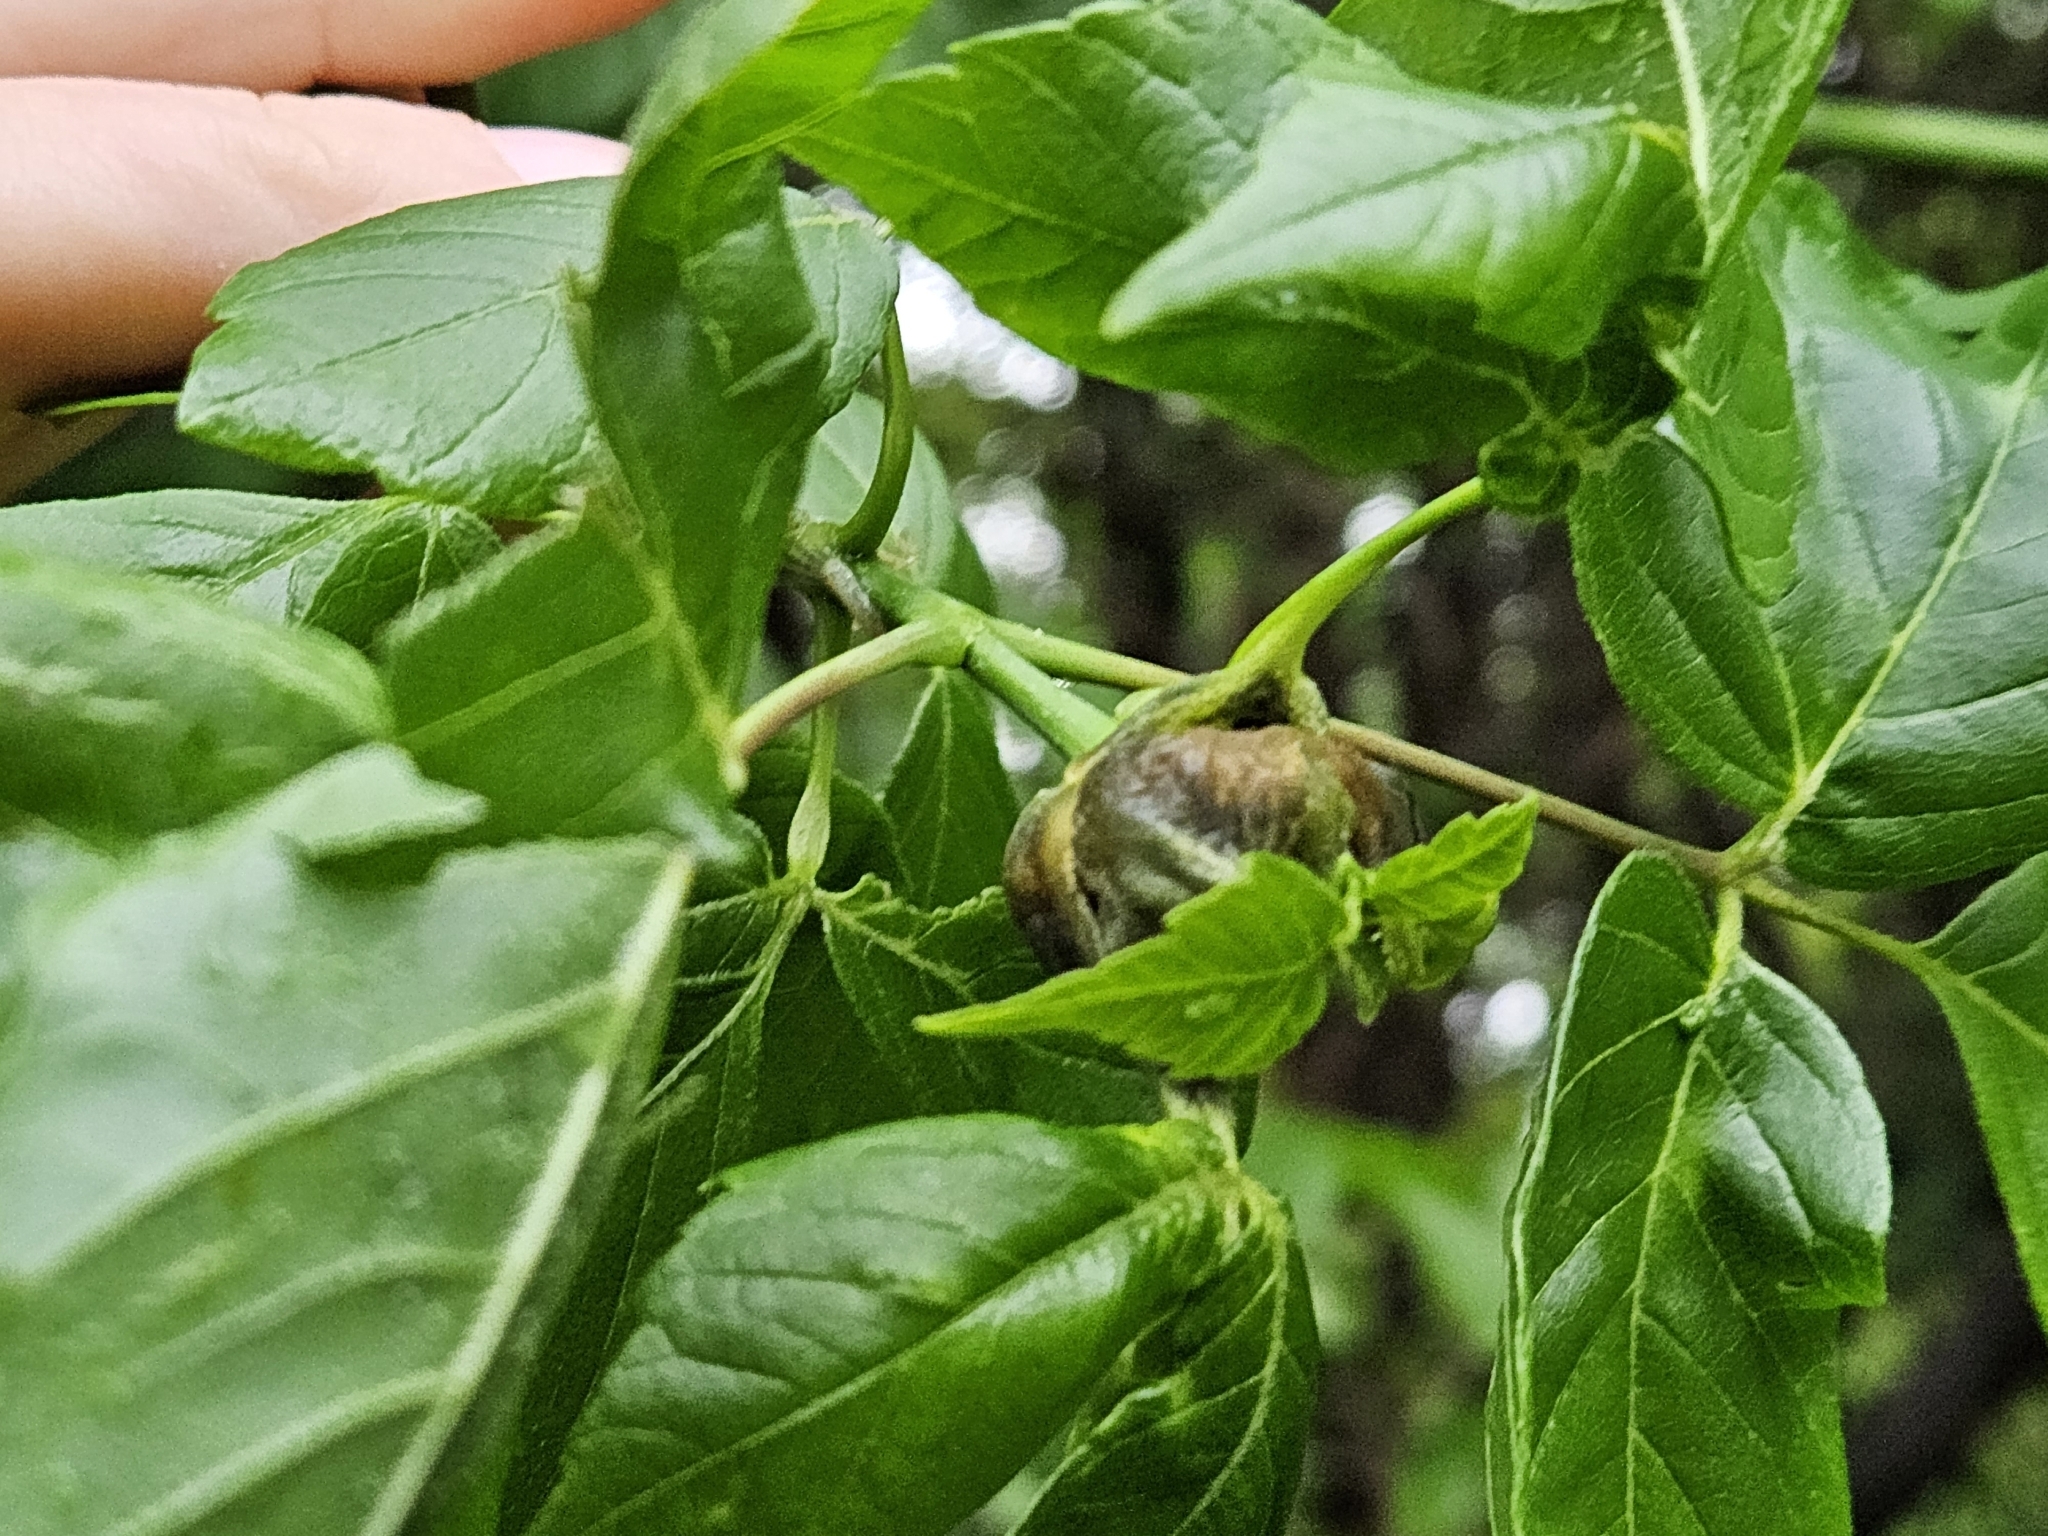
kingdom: Animalia
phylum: Arthropoda
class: Insecta
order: Diptera
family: Cecidomyiidae
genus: Contarinia
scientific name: Contarinia negundinis
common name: Boxelder budgall midge
